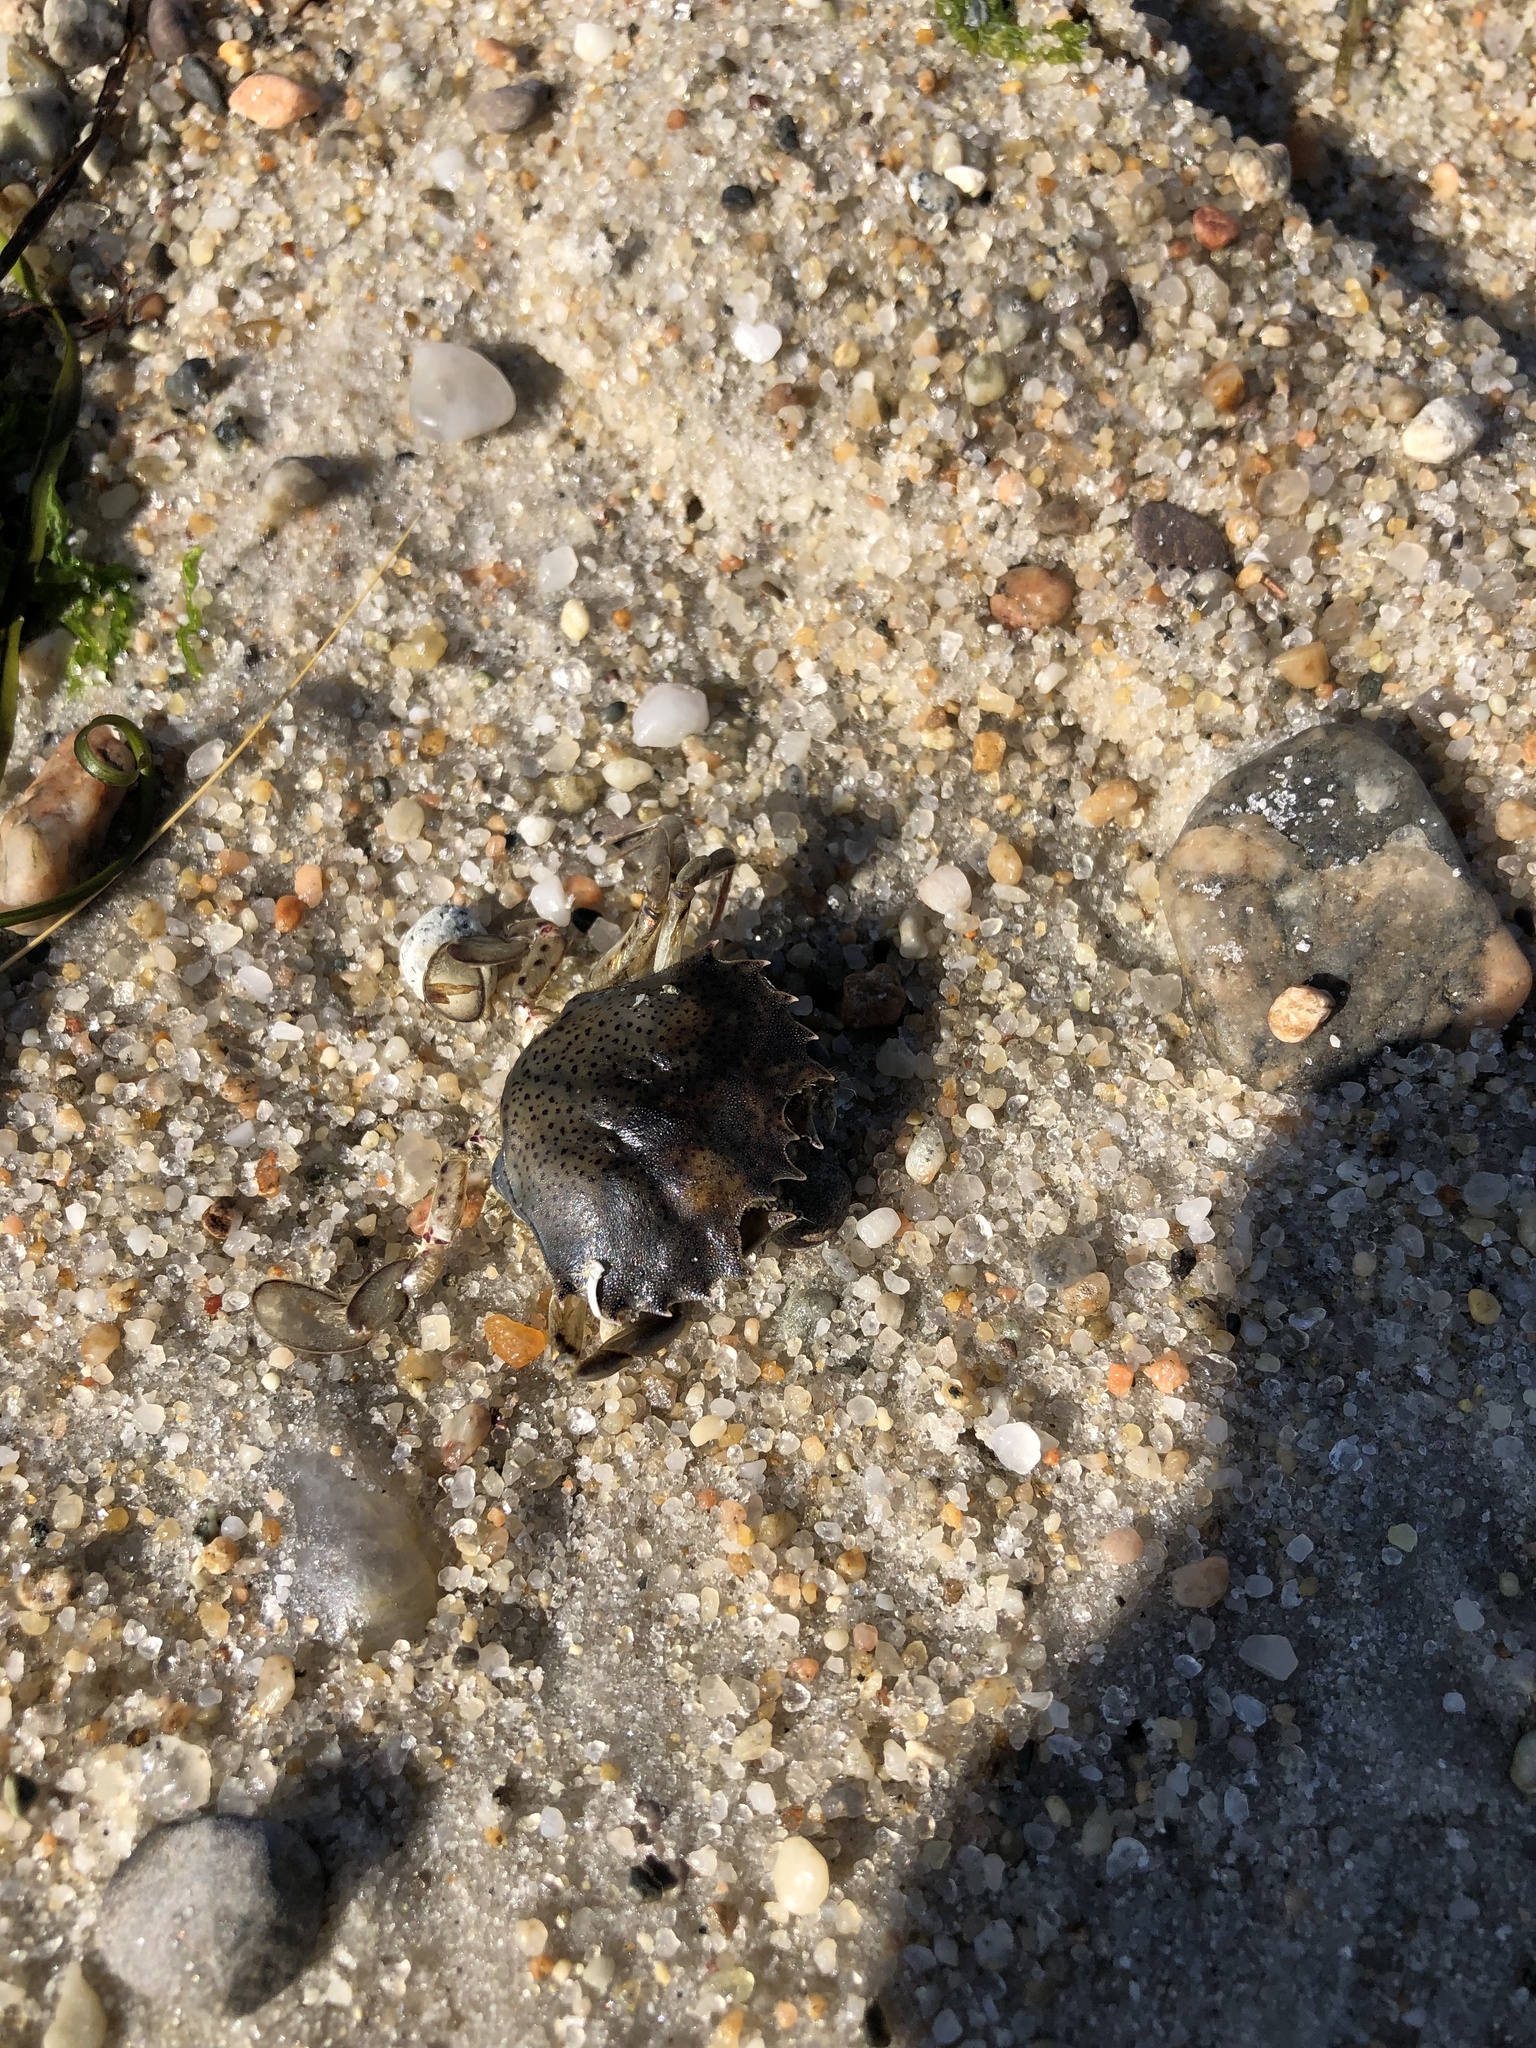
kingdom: Animalia
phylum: Arthropoda
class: Malacostraca
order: Decapoda
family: Ovalipidae
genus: Ovalipes
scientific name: Ovalipes ocellatus
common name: Lady crab
